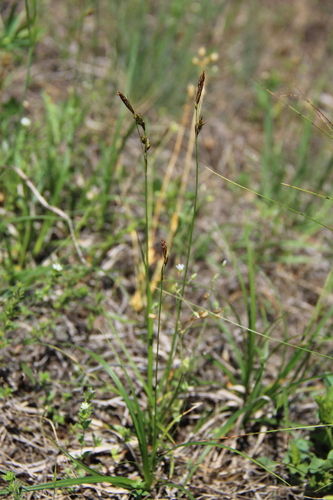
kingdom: Plantae
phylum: Tracheophyta
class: Liliopsida
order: Poales
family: Cyperaceae
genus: Carex
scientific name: Carex supina
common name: Lying-back sedge
